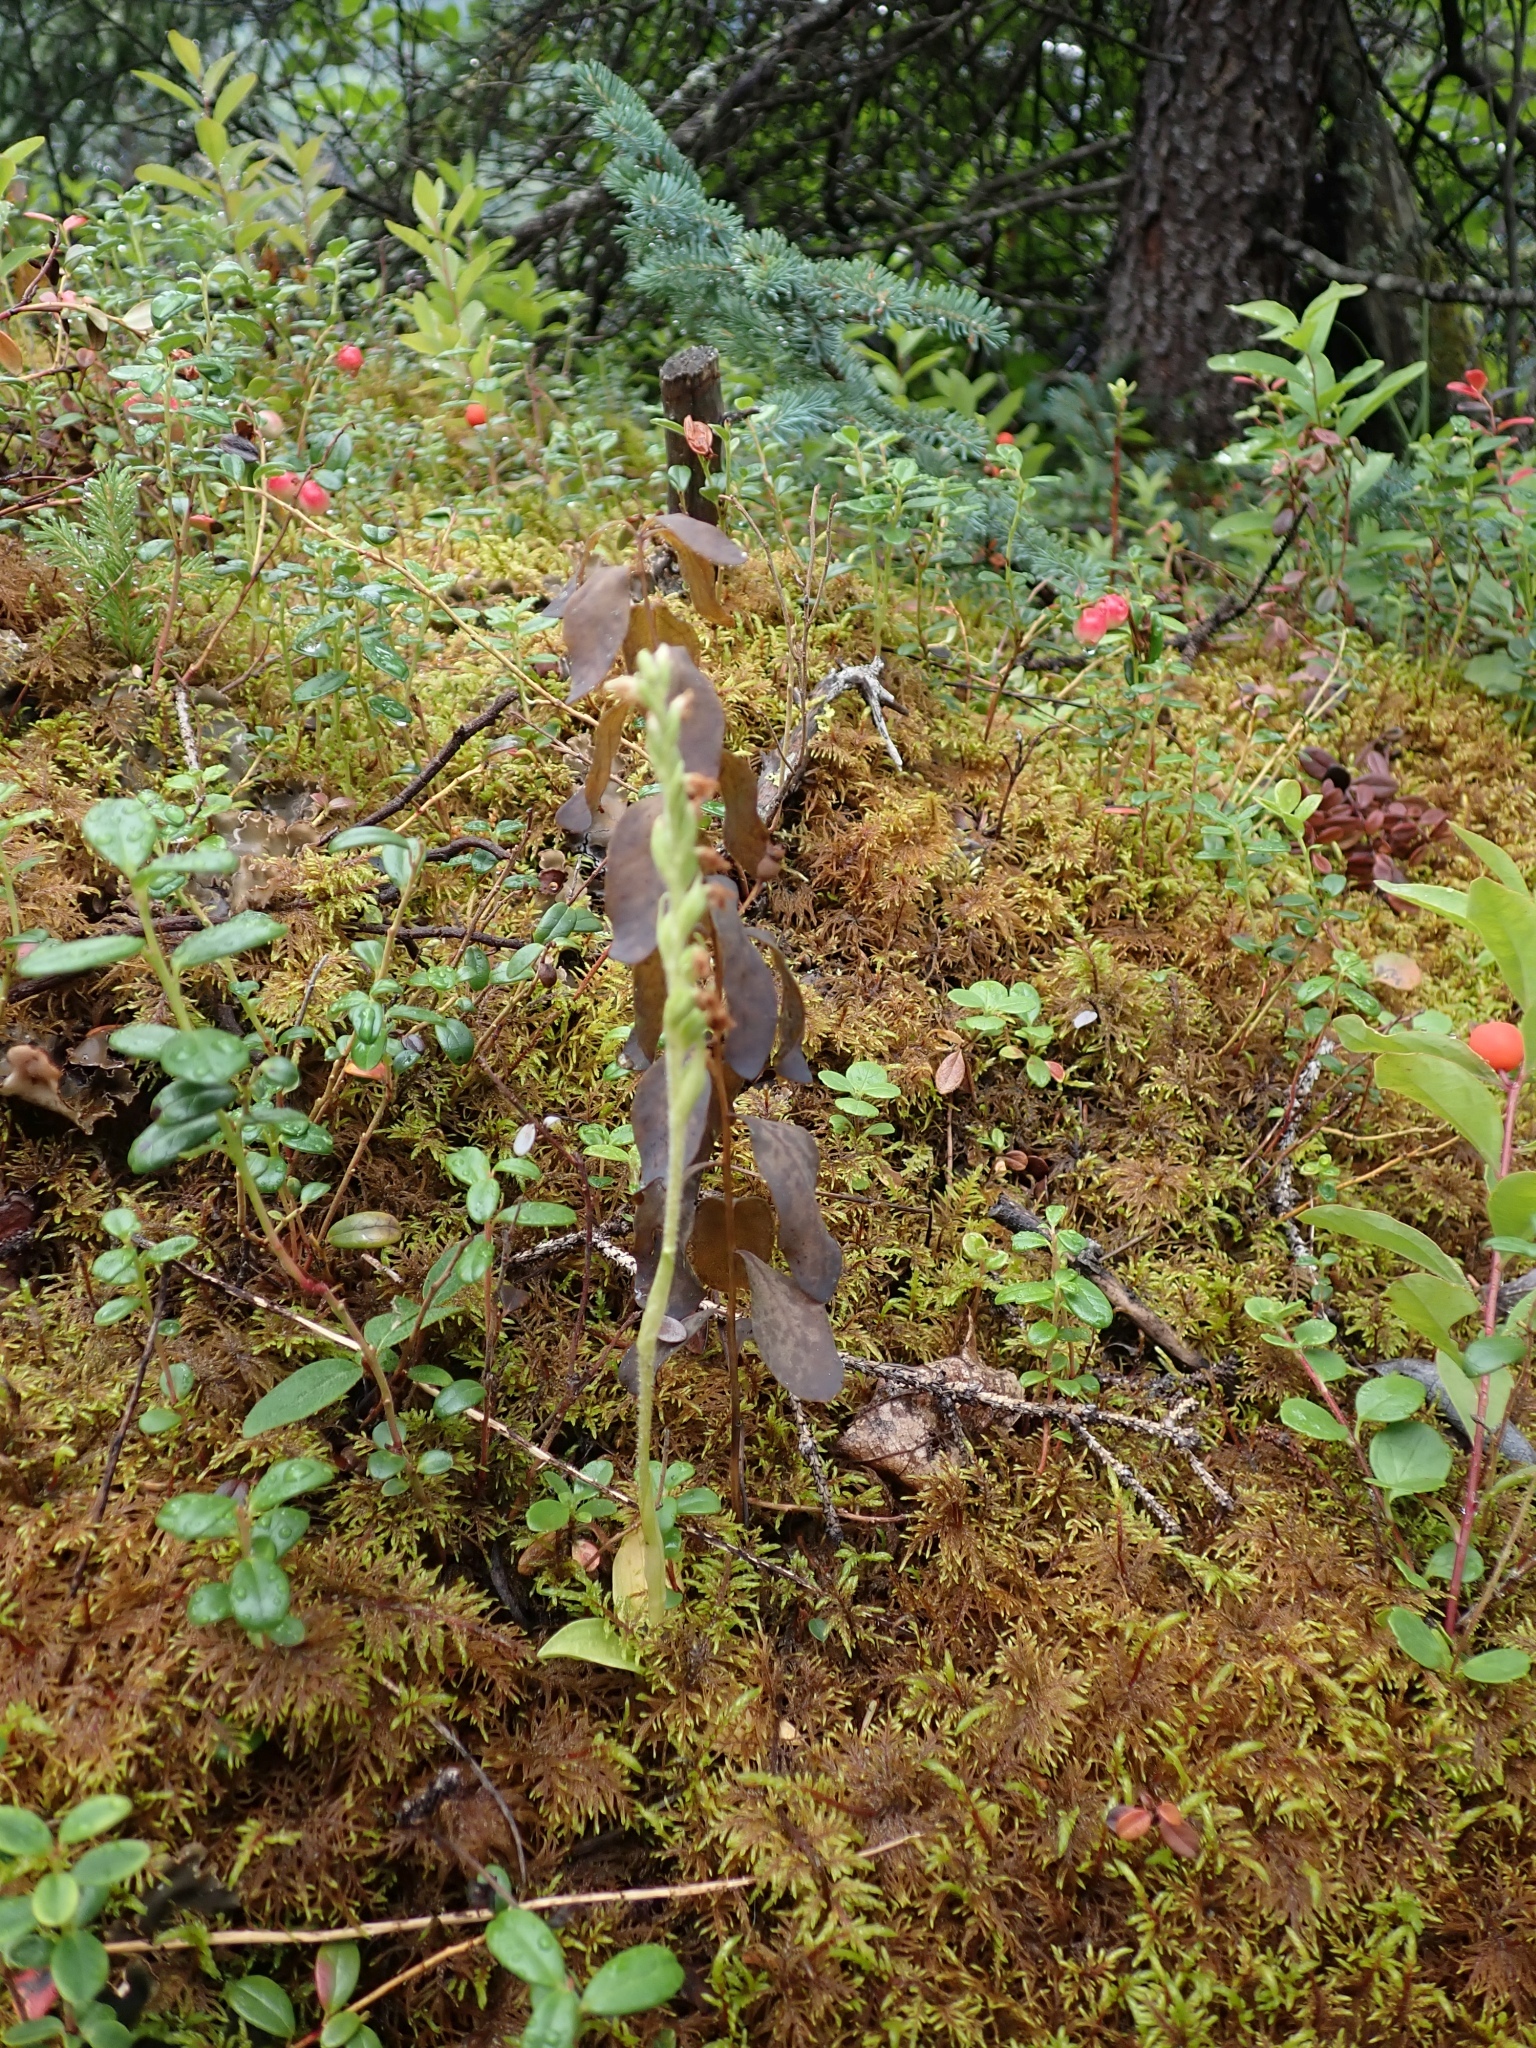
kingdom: Plantae
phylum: Tracheophyta
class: Liliopsida
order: Asparagales
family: Orchidaceae
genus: Goodyera
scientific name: Goodyera repens
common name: Creeping lady's-tresses
